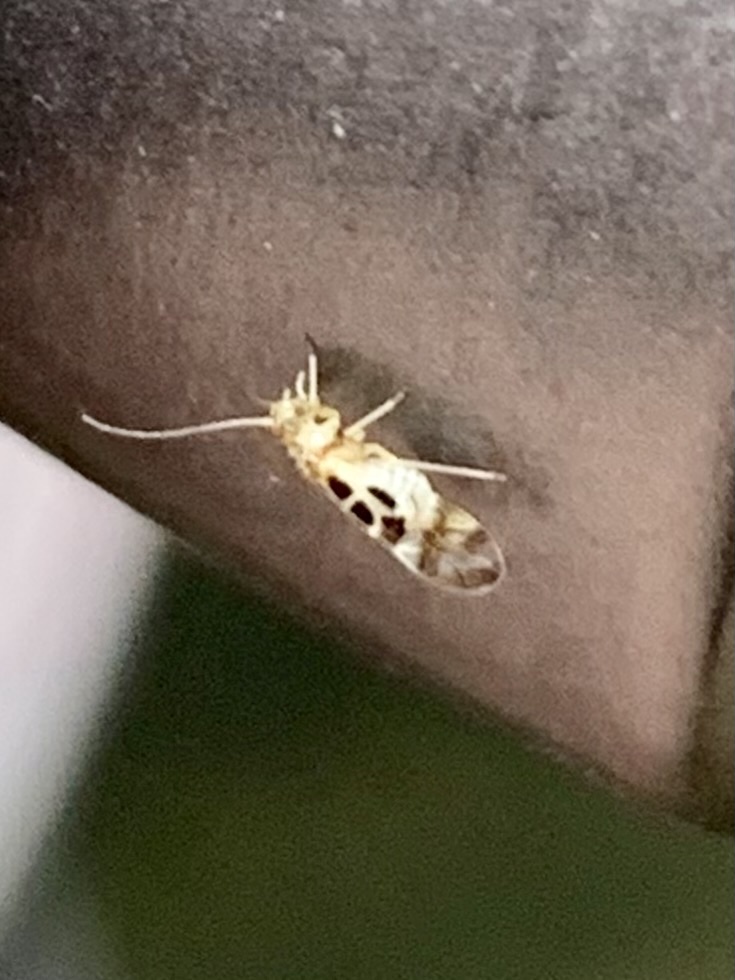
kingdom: Animalia
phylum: Arthropoda
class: Insecta
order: Psocodea
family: Stenopsocidae
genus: Graphopsocus
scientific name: Graphopsocus cruciatus
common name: Lizard bark louse
